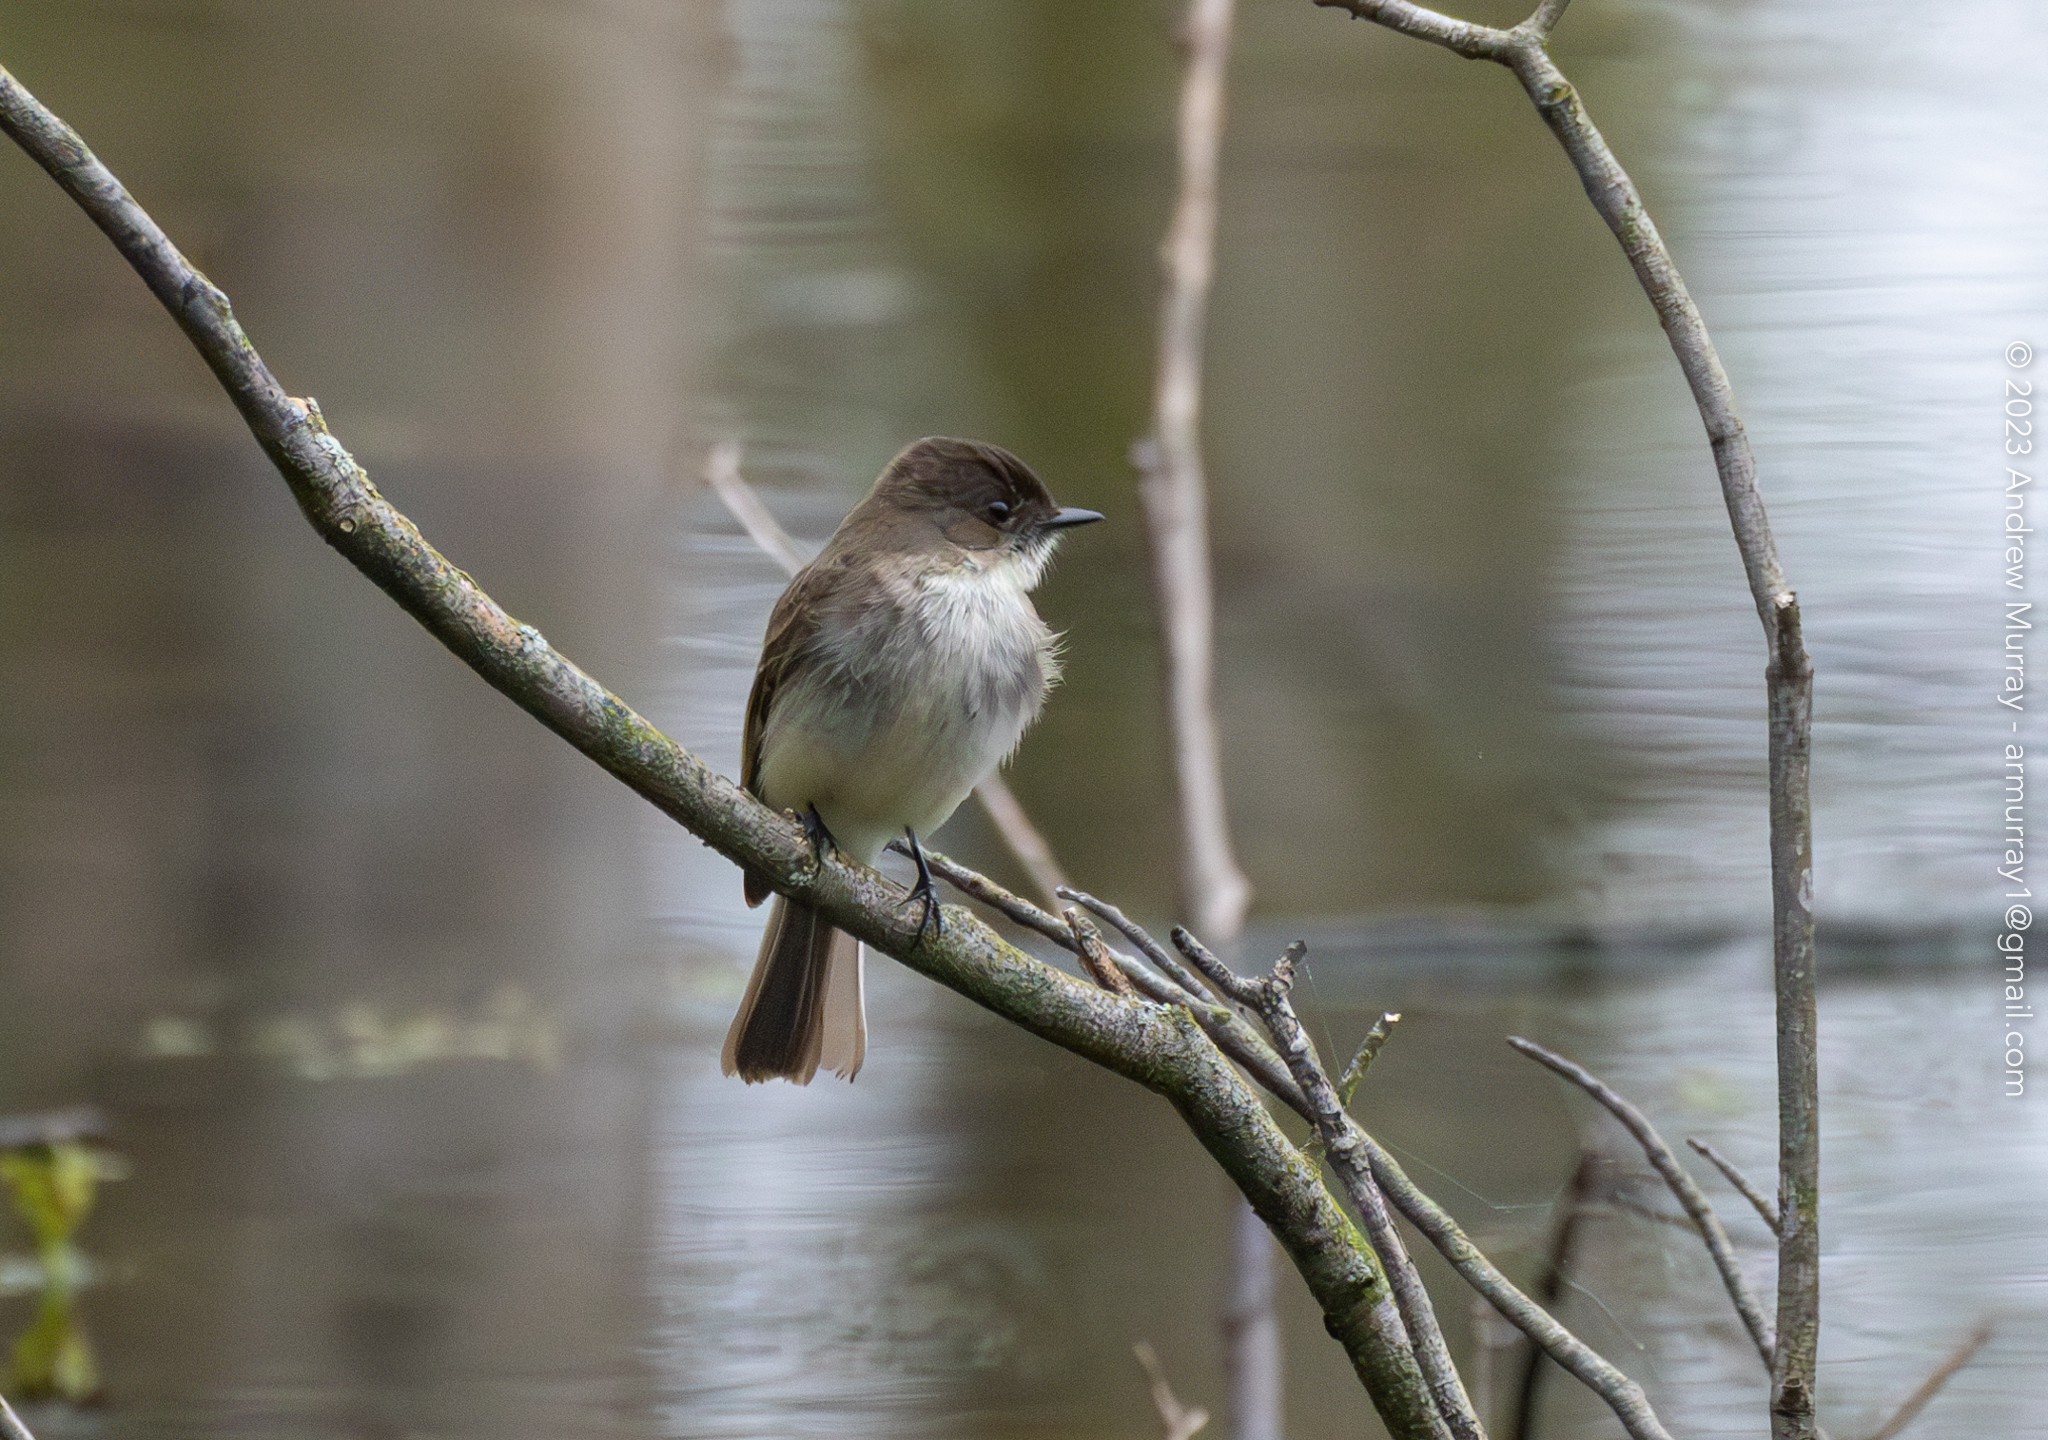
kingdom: Animalia
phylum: Chordata
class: Aves
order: Passeriformes
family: Tyrannidae
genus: Sayornis
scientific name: Sayornis phoebe
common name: Eastern phoebe
